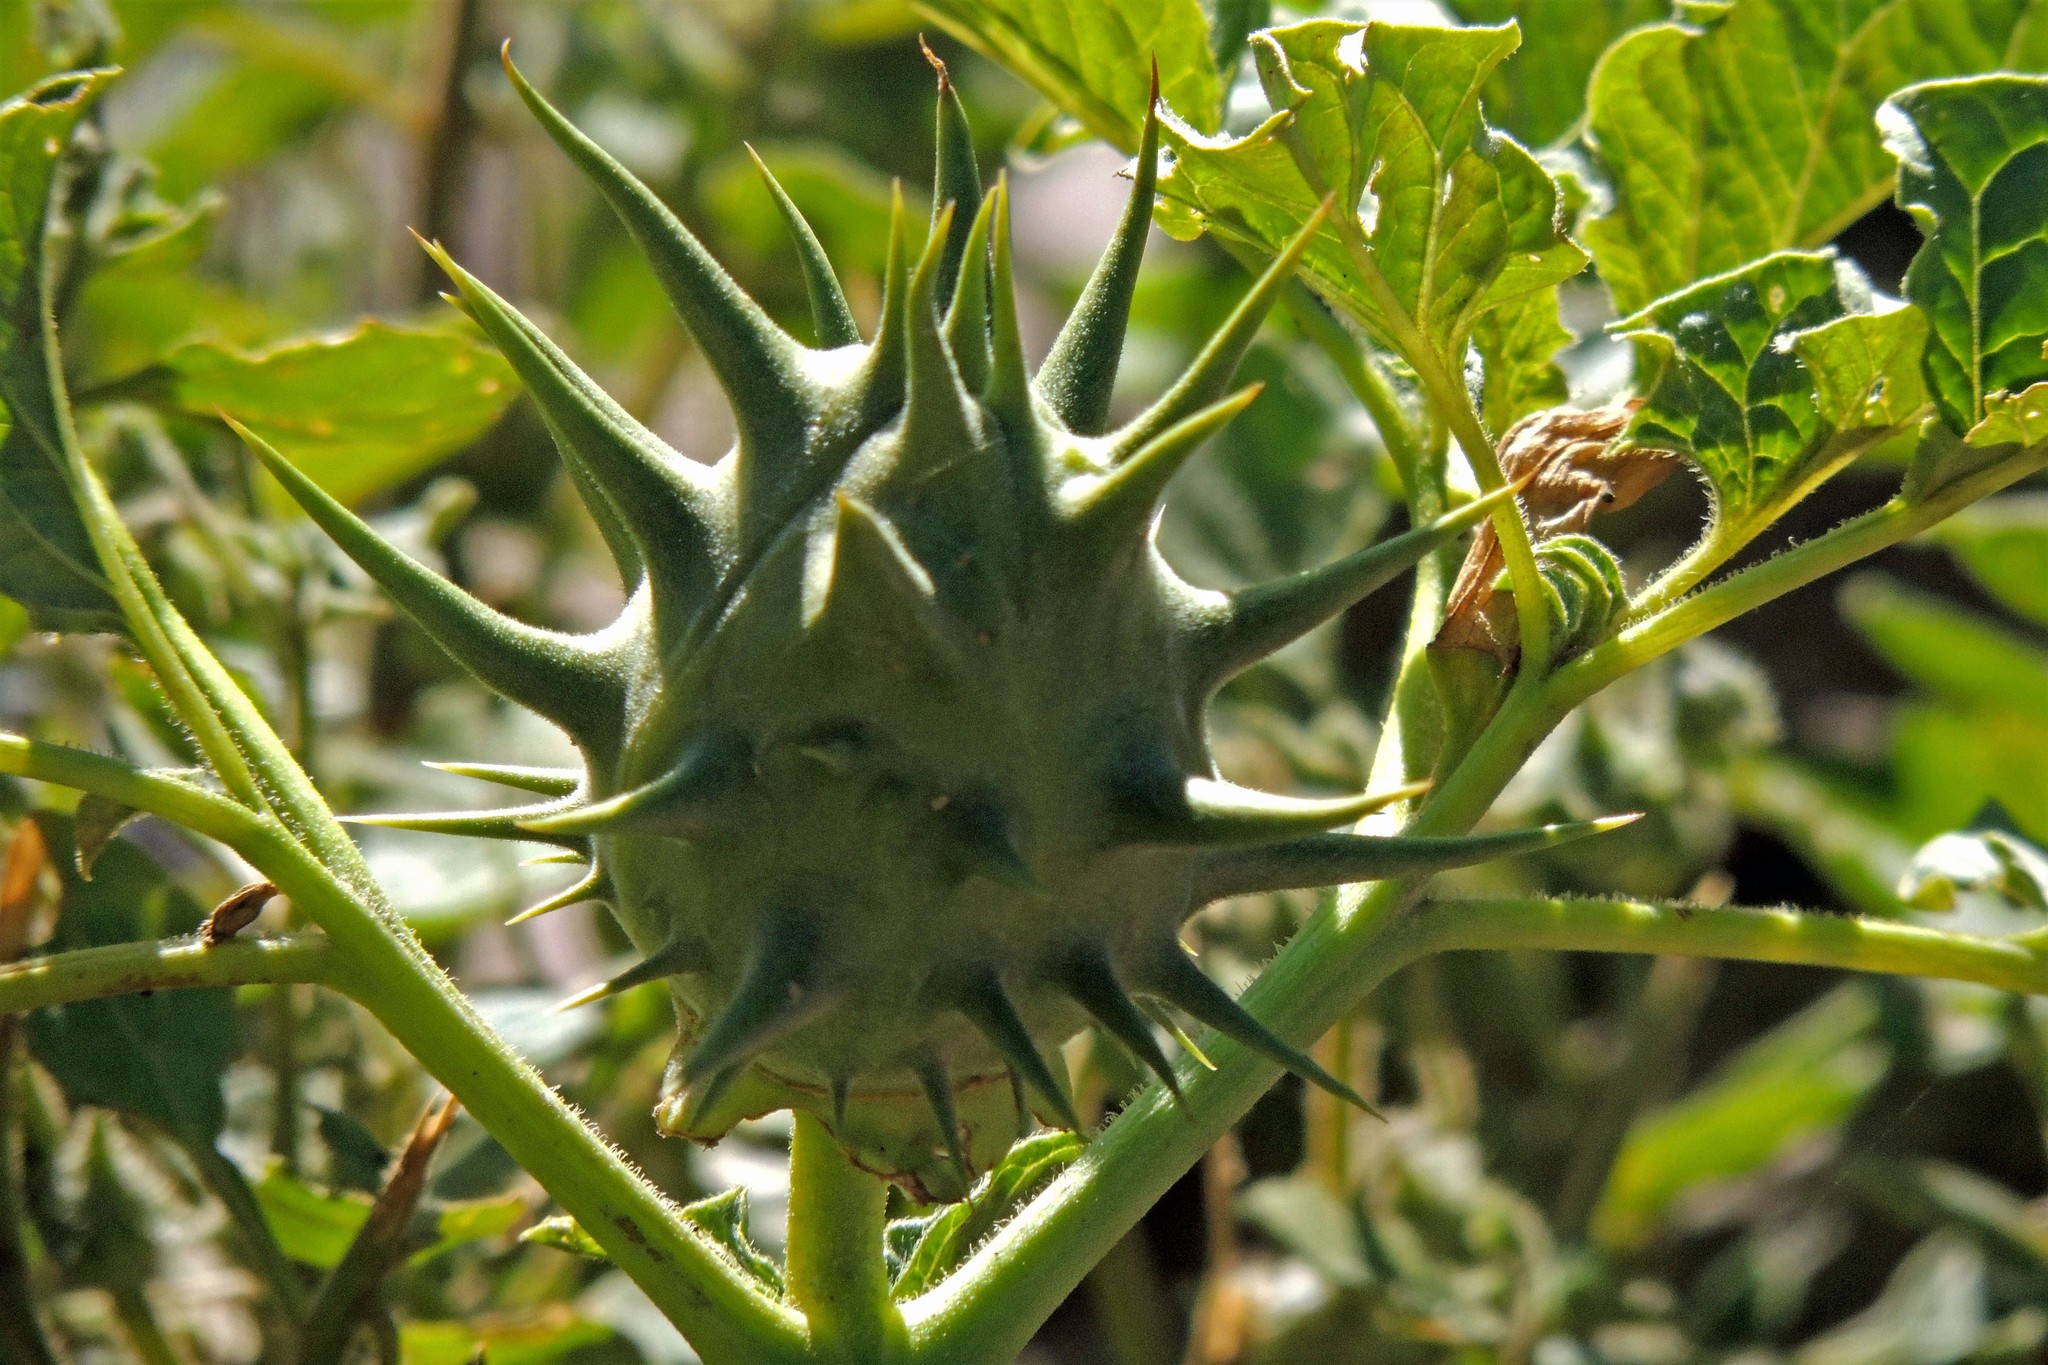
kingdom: Plantae
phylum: Tracheophyta
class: Magnoliopsida
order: Solanales
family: Solanaceae
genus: Datura
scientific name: Datura ferox
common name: Angel's-trumpets
